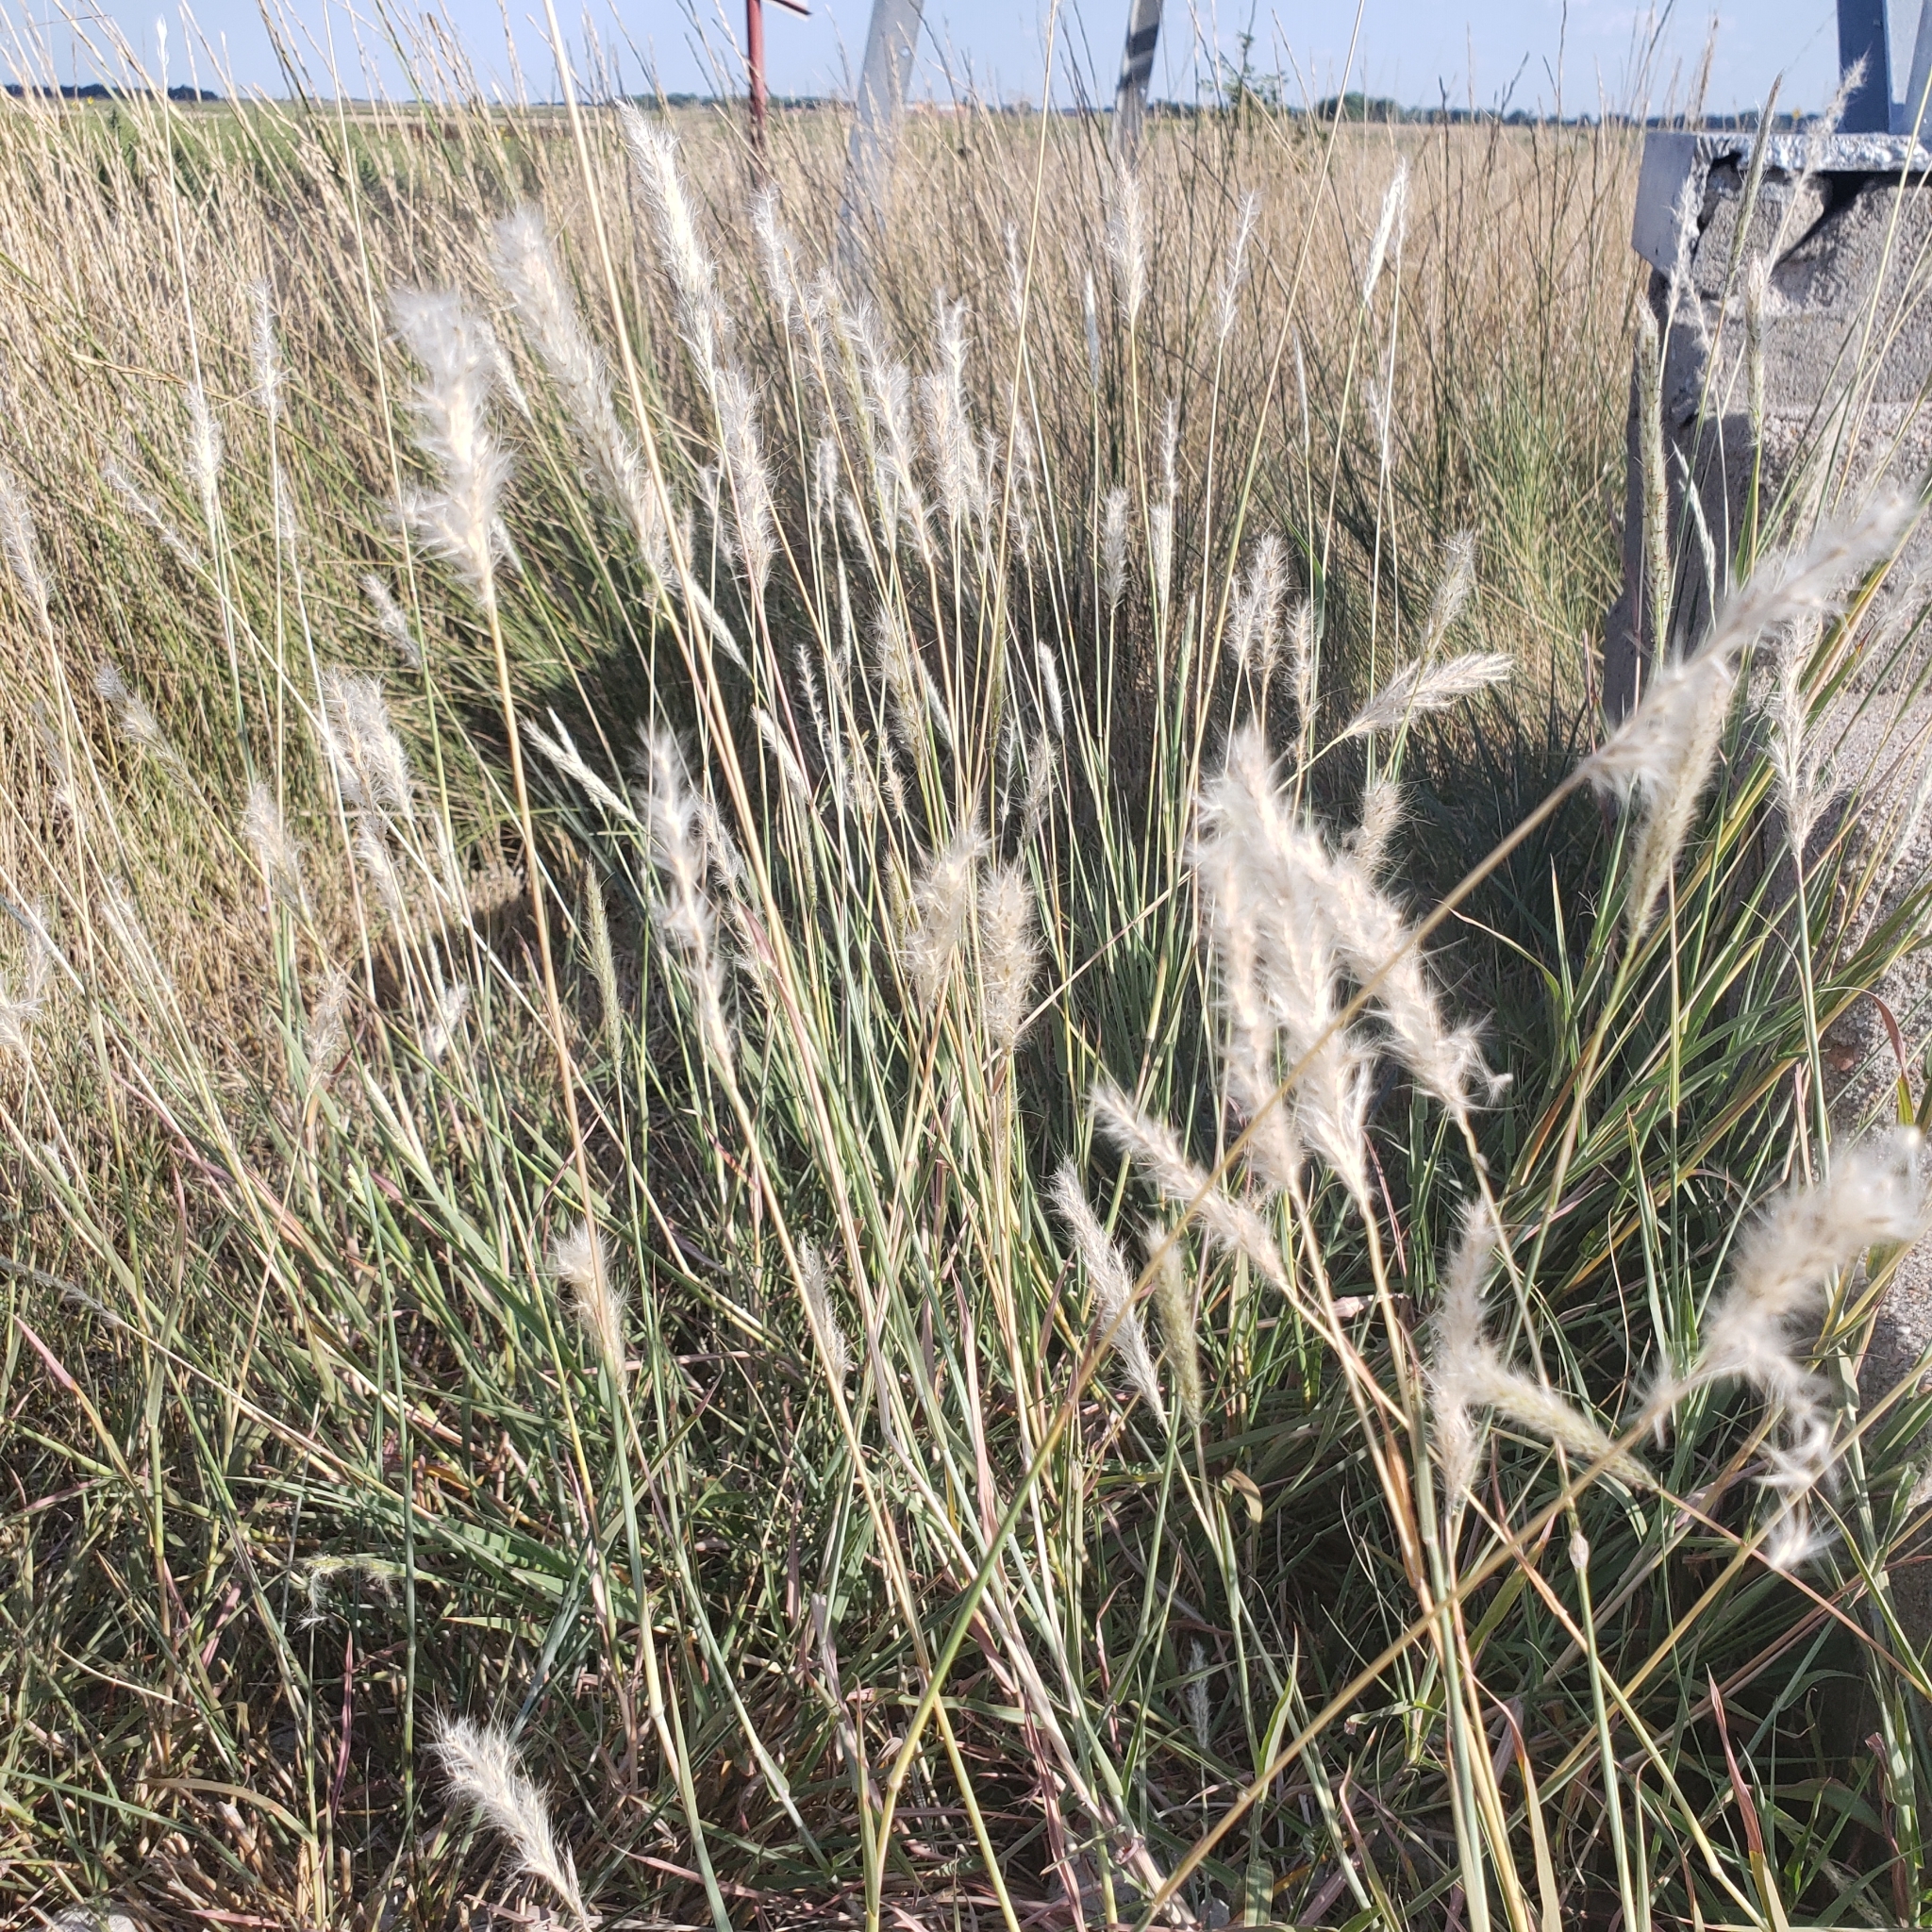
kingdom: Plantae
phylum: Tracheophyta
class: Liliopsida
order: Poales
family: Poaceae
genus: Bothriochloa
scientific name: Bothriochloa torreyana
